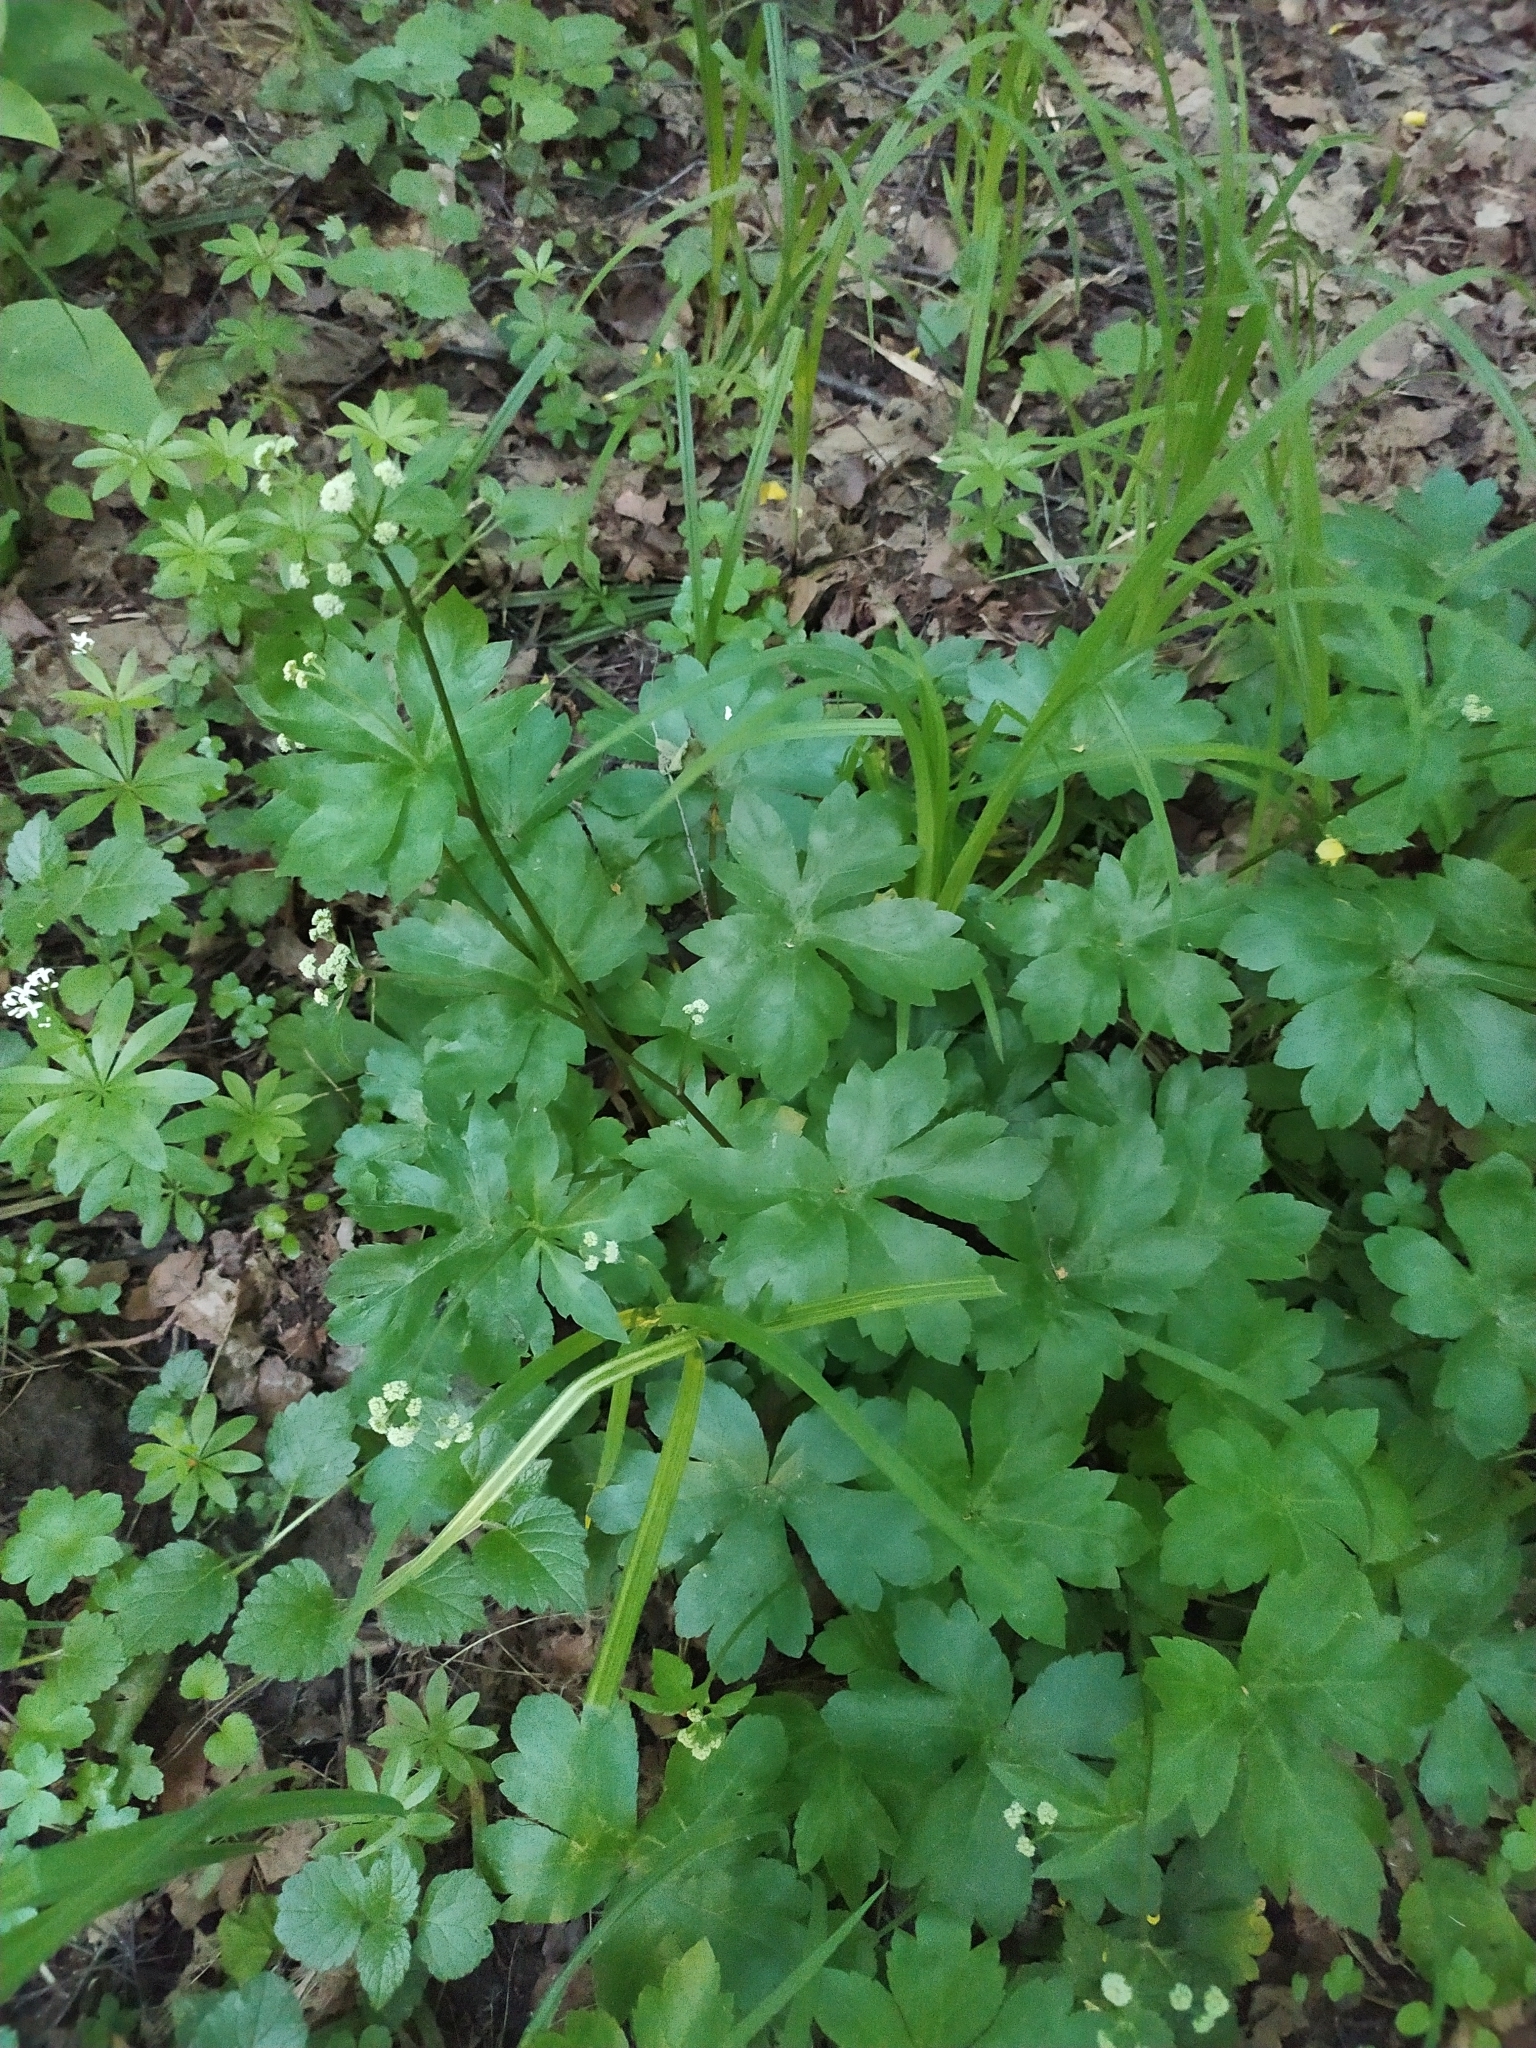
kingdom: Plantae
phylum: Tracheophyta
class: Magnoliopsida
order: Apiales
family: Apiaceae
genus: Sanicula
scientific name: Sanicula europaea
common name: Sanicle
